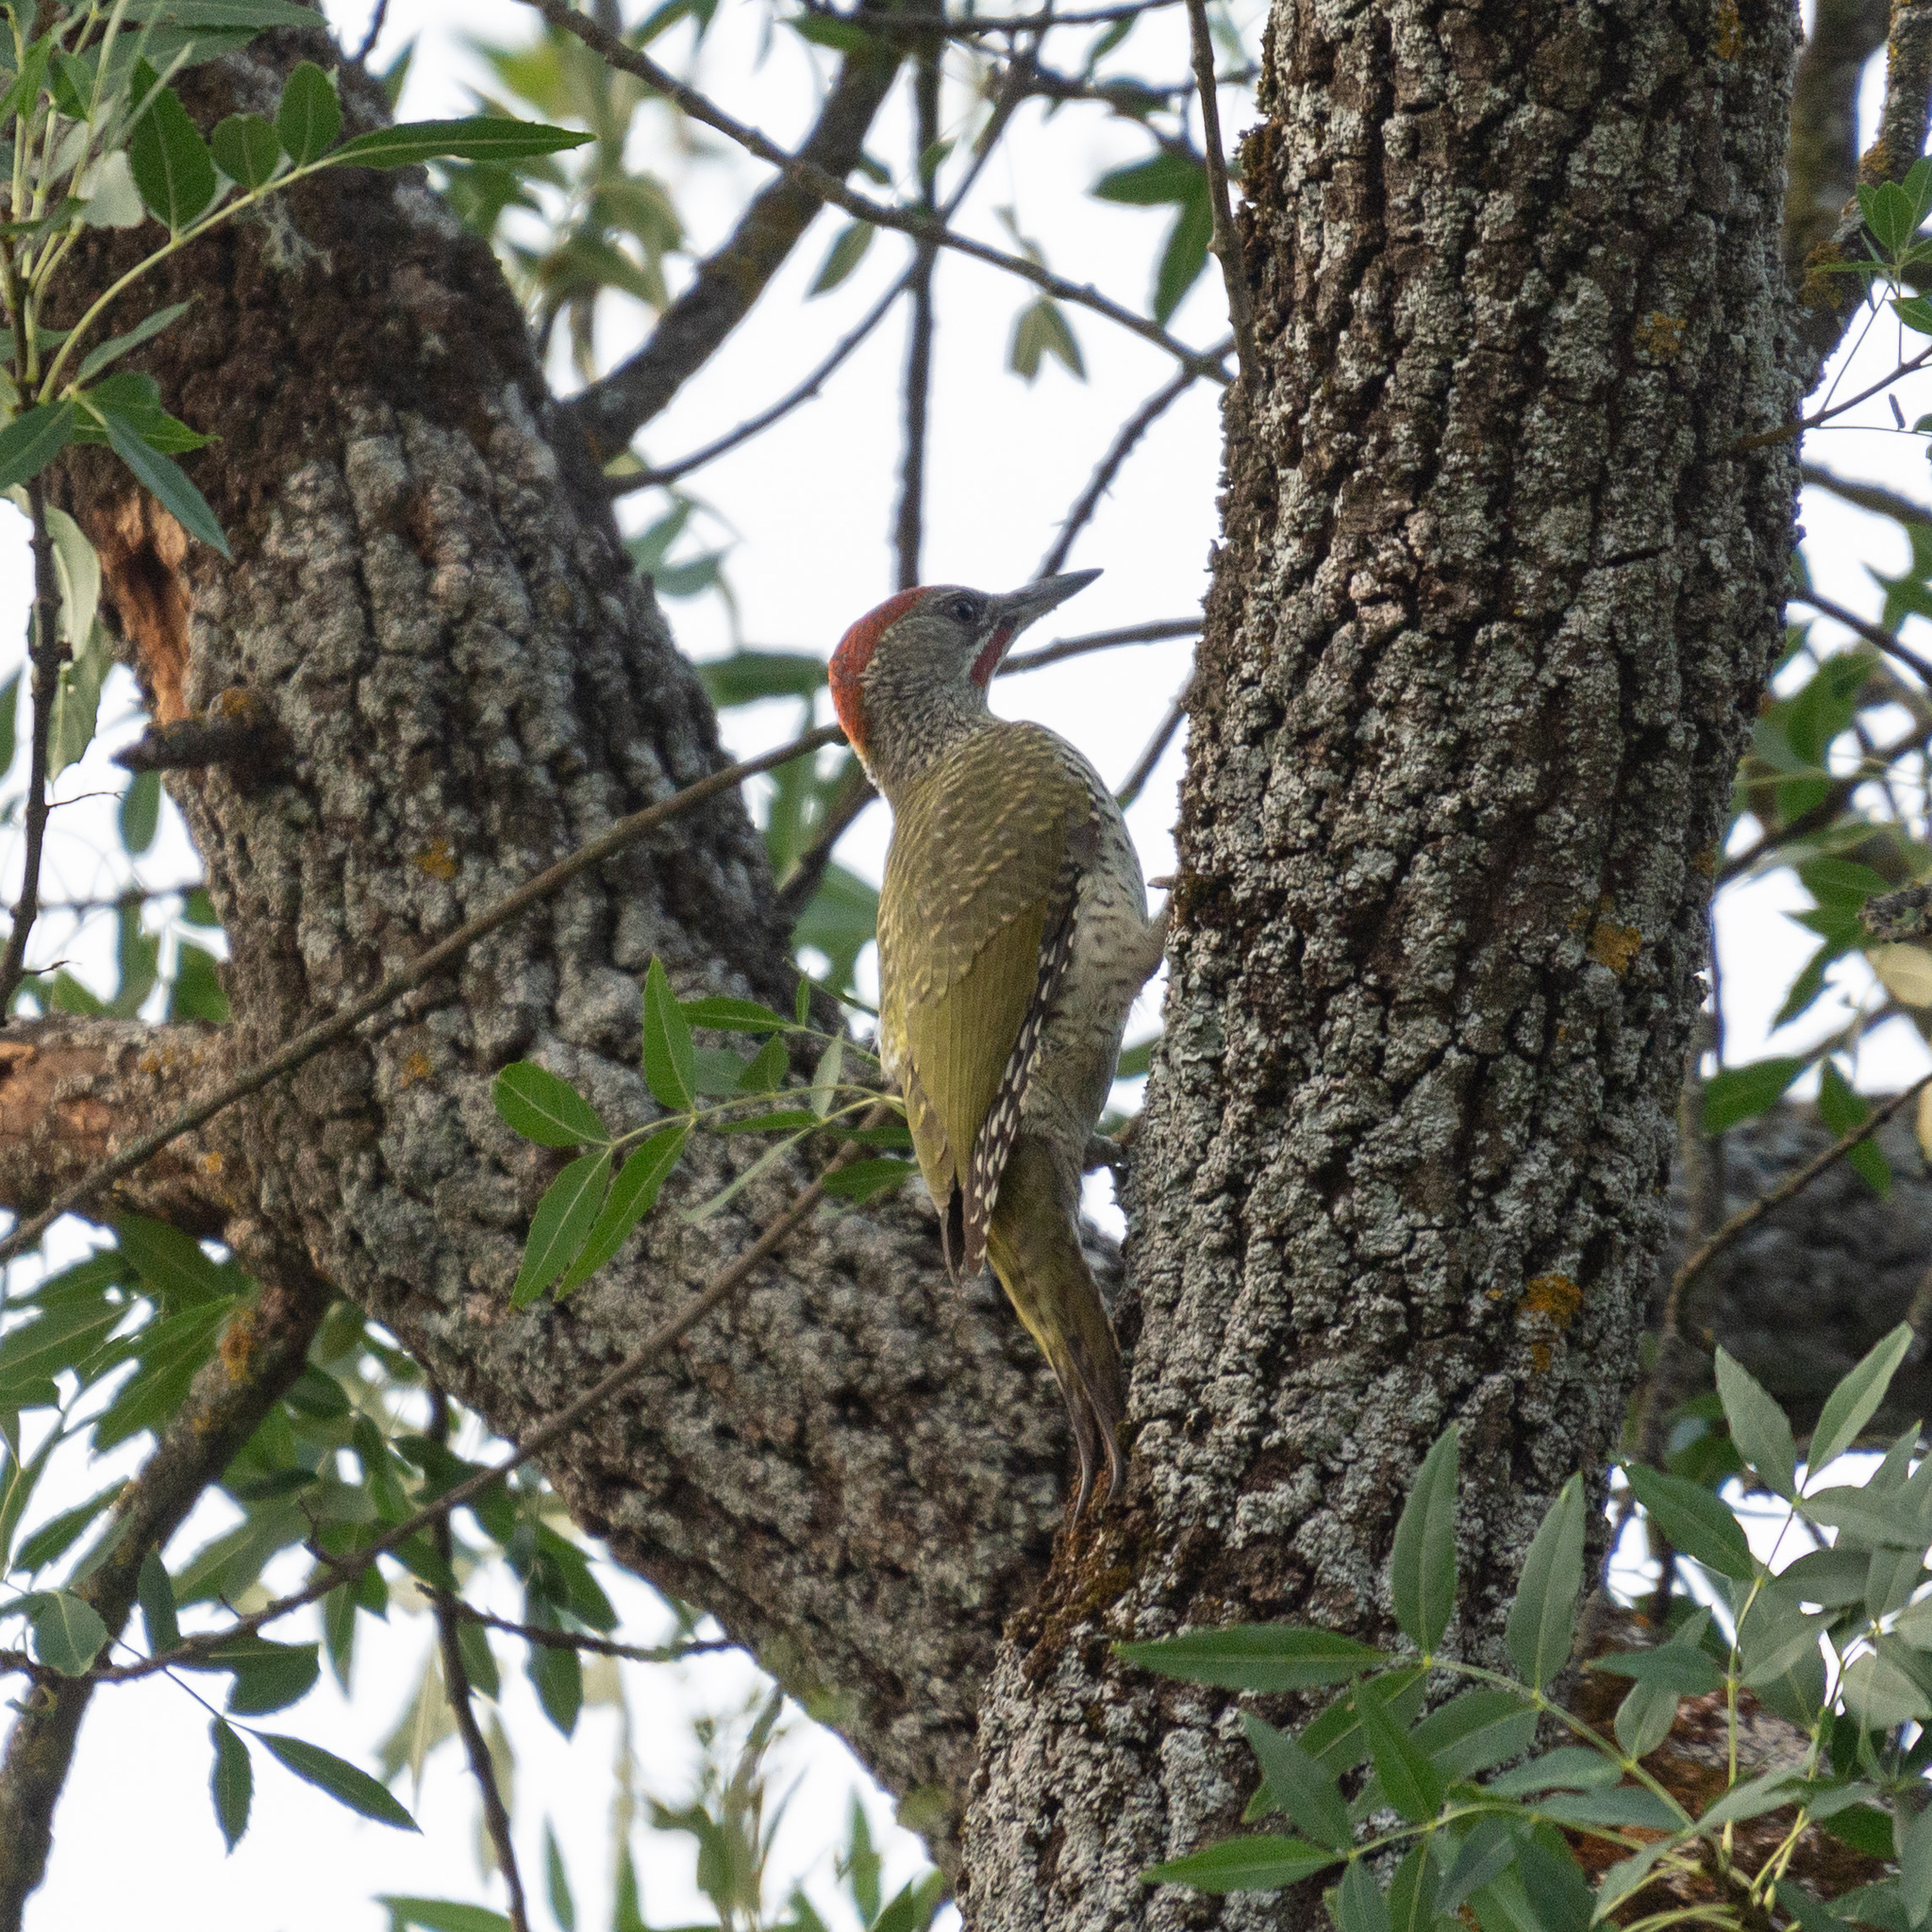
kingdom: Animalia
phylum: Chordata
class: Aves
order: Piciformes
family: Picidae
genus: Picus
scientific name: Picus sharpei
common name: Iberian green woodpecker
